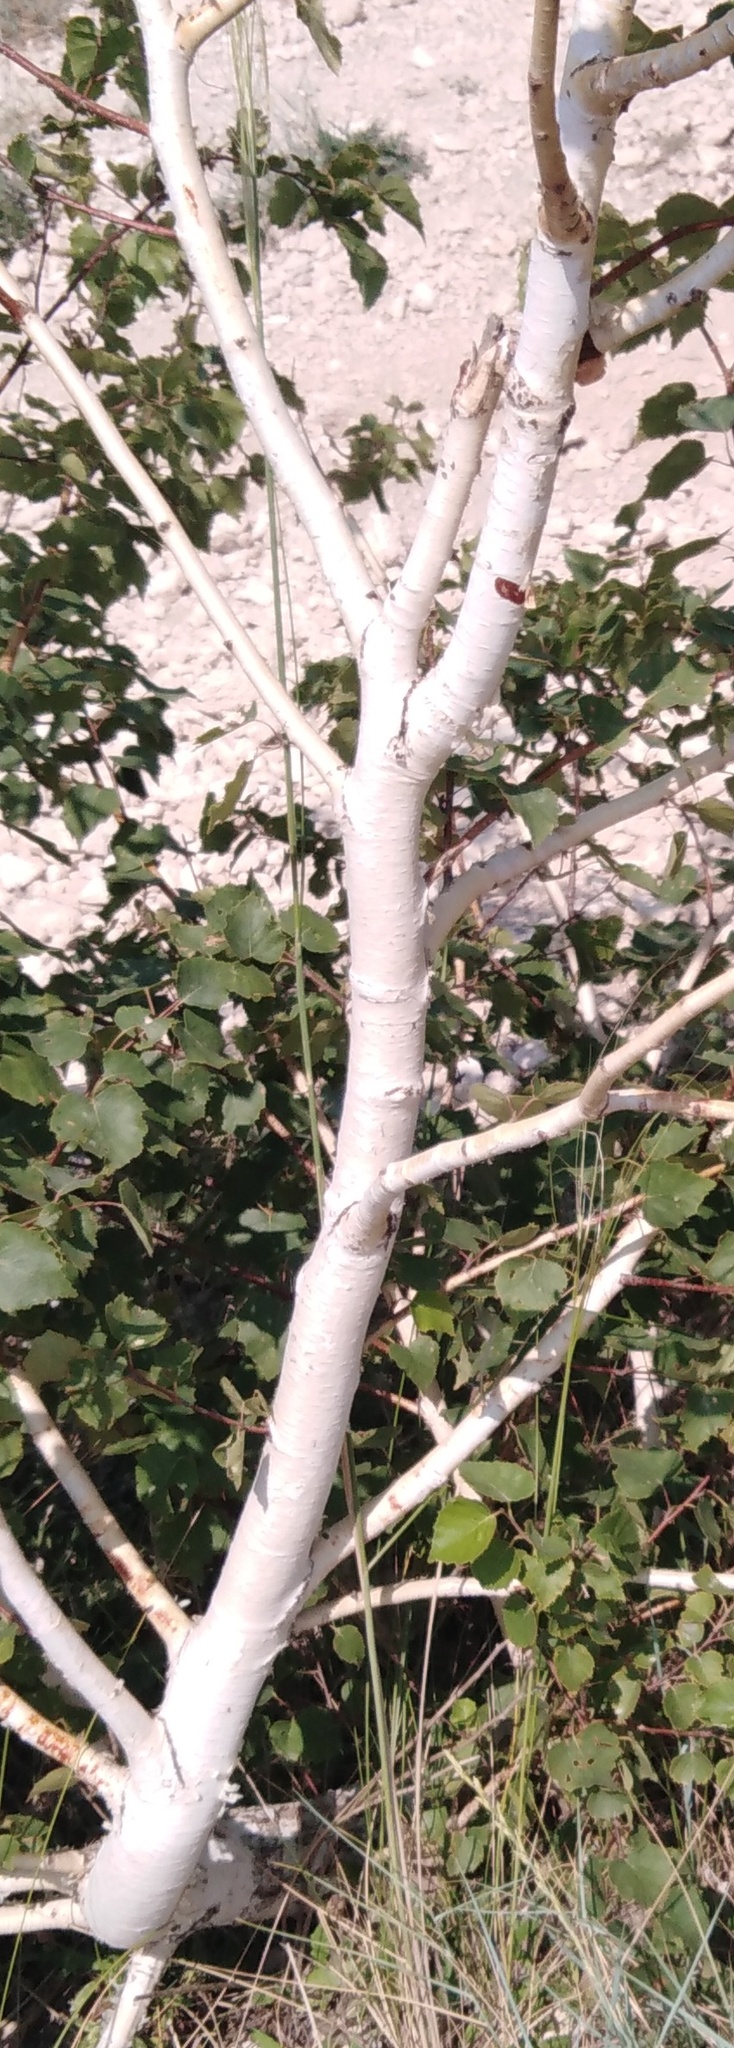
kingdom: Plantae
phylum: Tracheophyta
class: Magnoliopsida
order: Fagales
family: Betulaceae
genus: Betula
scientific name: Betula pendula
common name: Silver birch
